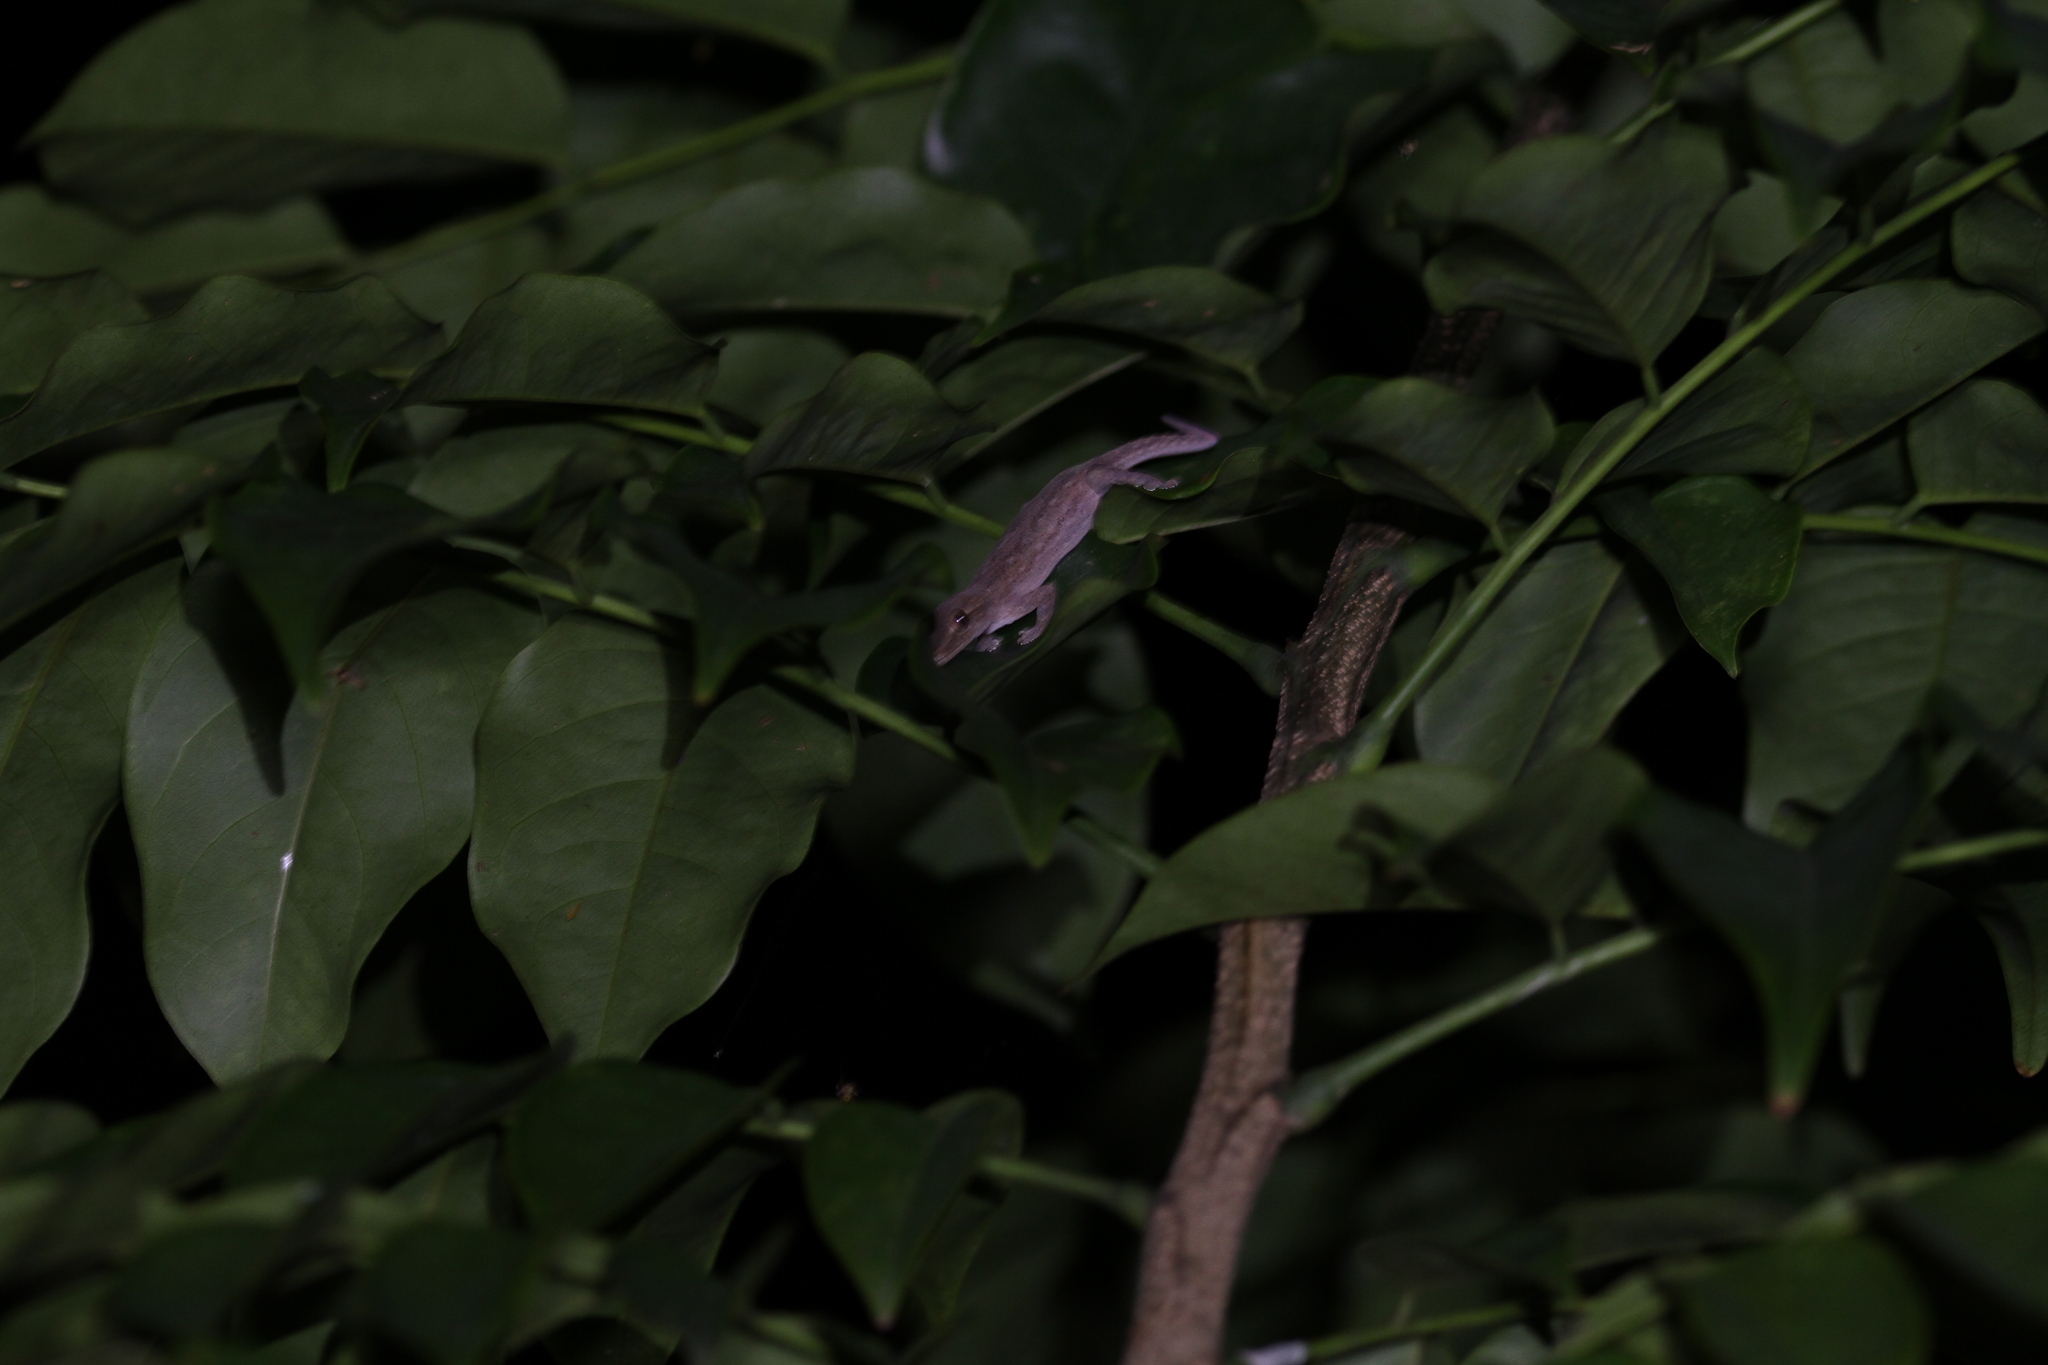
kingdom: Animalia
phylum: Chordata
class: Squamata
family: Gekkonidae
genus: Hemidactylus
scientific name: Hemidactylus frenatus
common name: Common house gecko
